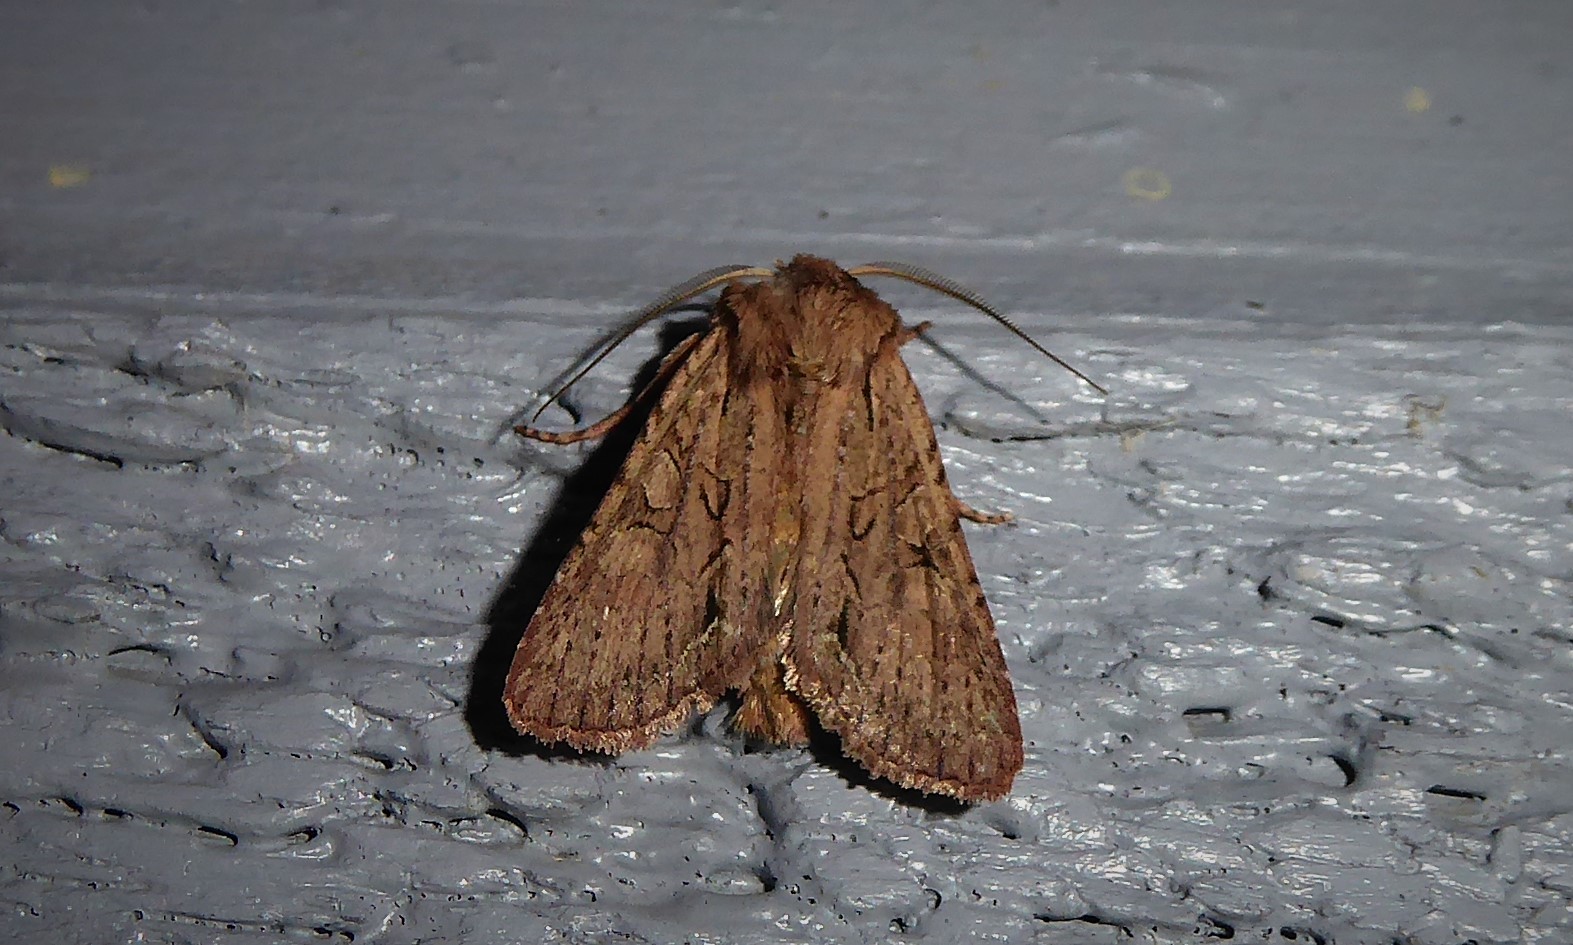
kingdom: Animalia
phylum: Arthropoda
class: Insecta
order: Lepidoptera
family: Noctuidae
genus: Ichneutica
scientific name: Ichneutica
